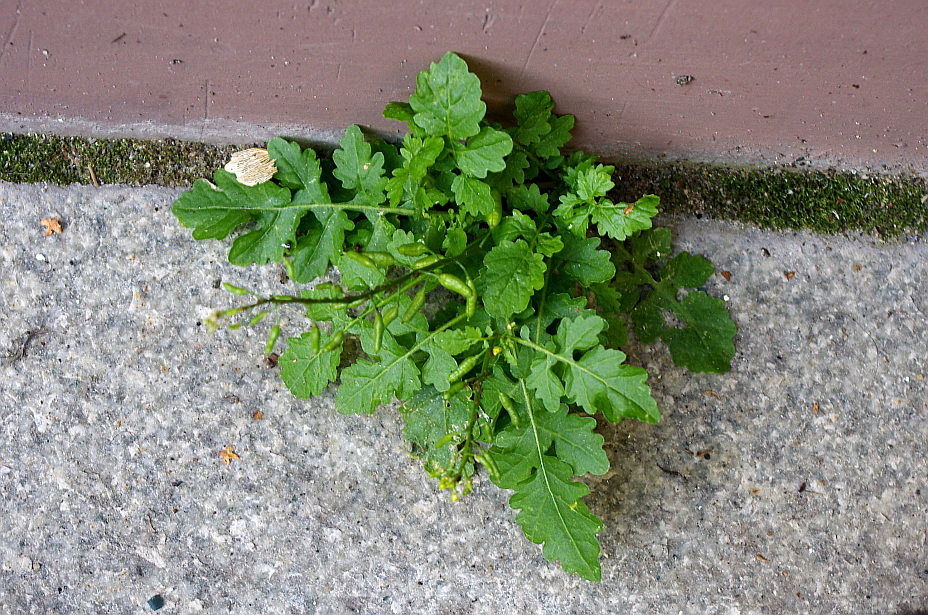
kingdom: Plantae
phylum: Tracheophyta
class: Magnoliopsida
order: Brassicales
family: Brassicaceae
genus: Rorippa
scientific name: Rorippa palustris
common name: Marsh yellow-cress
